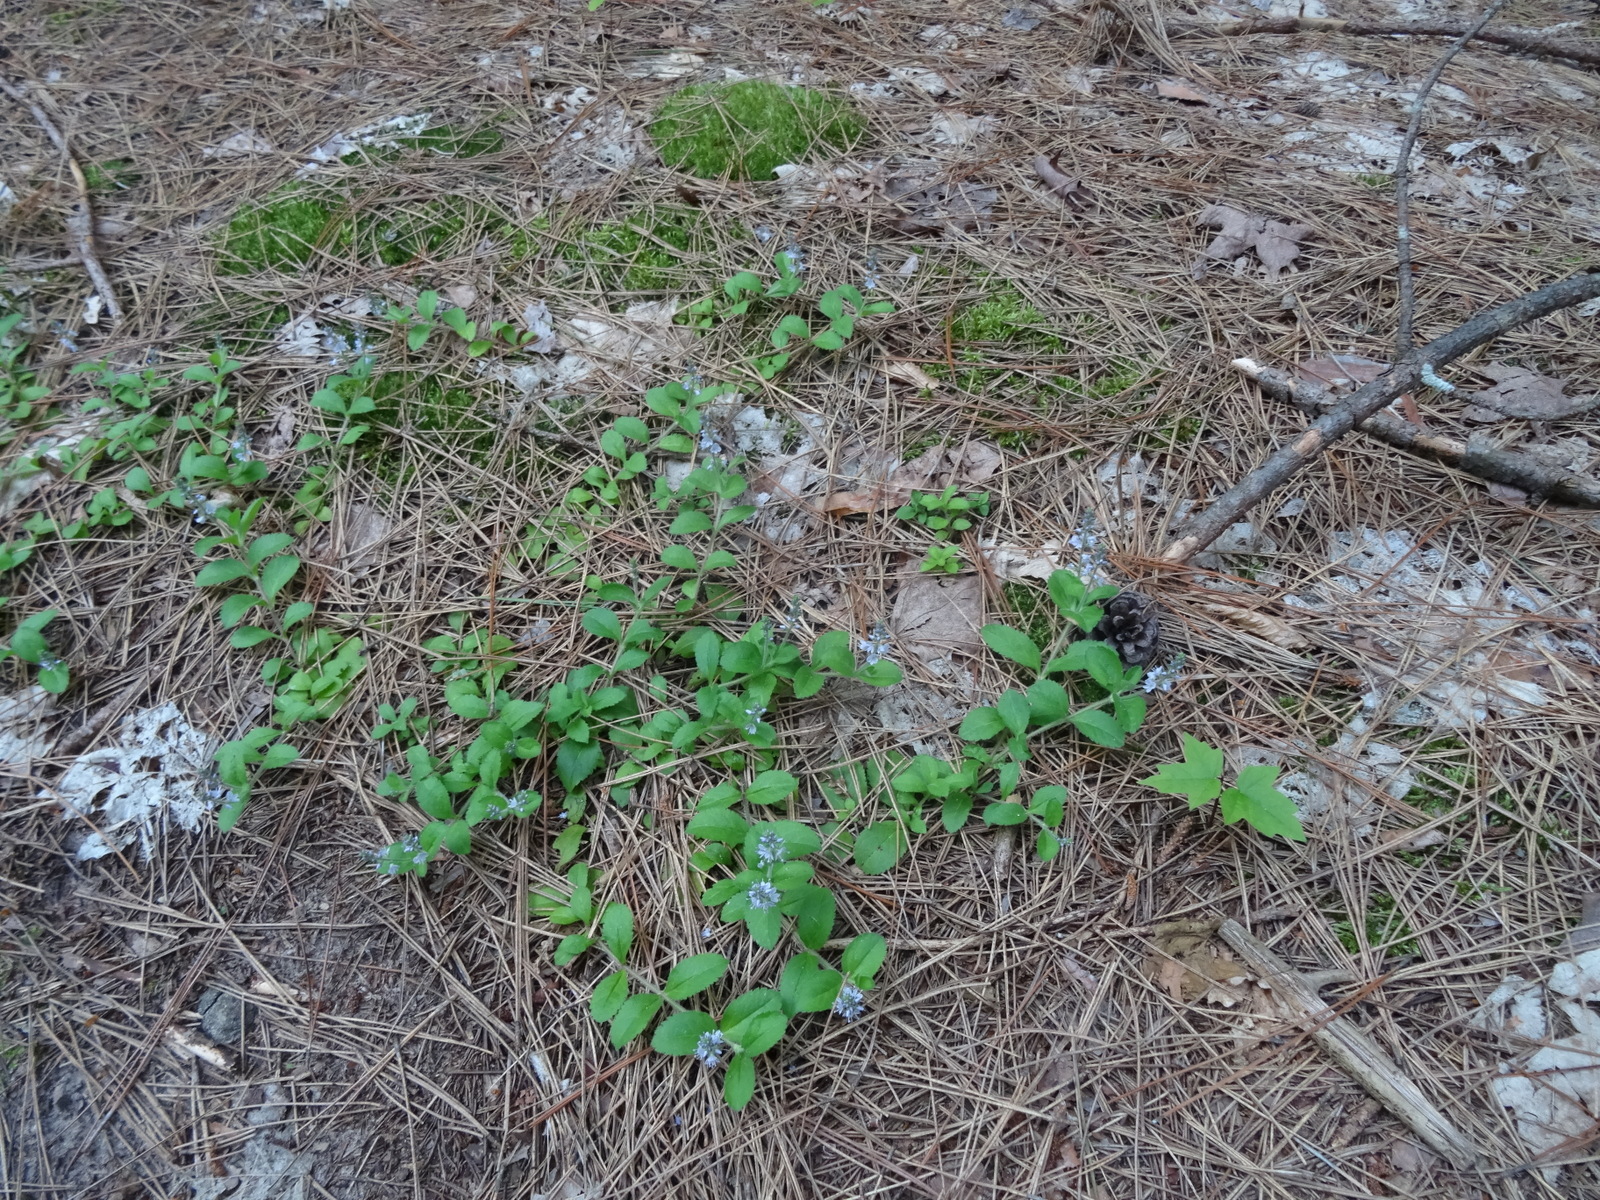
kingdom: Plantae
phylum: Tracheophyta
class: Magnoliopsida
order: Lamiales
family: Plantaginaceae
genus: Veronica
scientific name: Veronica officinalis
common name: Common speedwell
